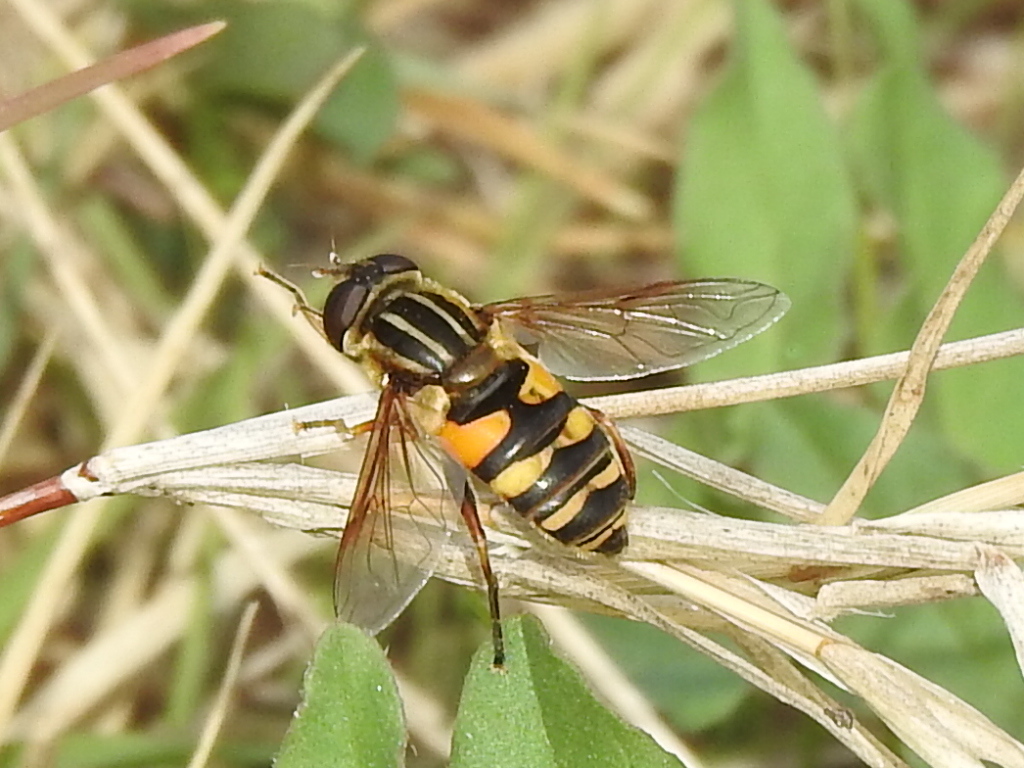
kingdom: Animalia
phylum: Arthropoda
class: Insecta
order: Diptera
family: Syrphidae
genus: Helophilus
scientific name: Helophilus fasciatus
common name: Narrow-headed marsh fly
